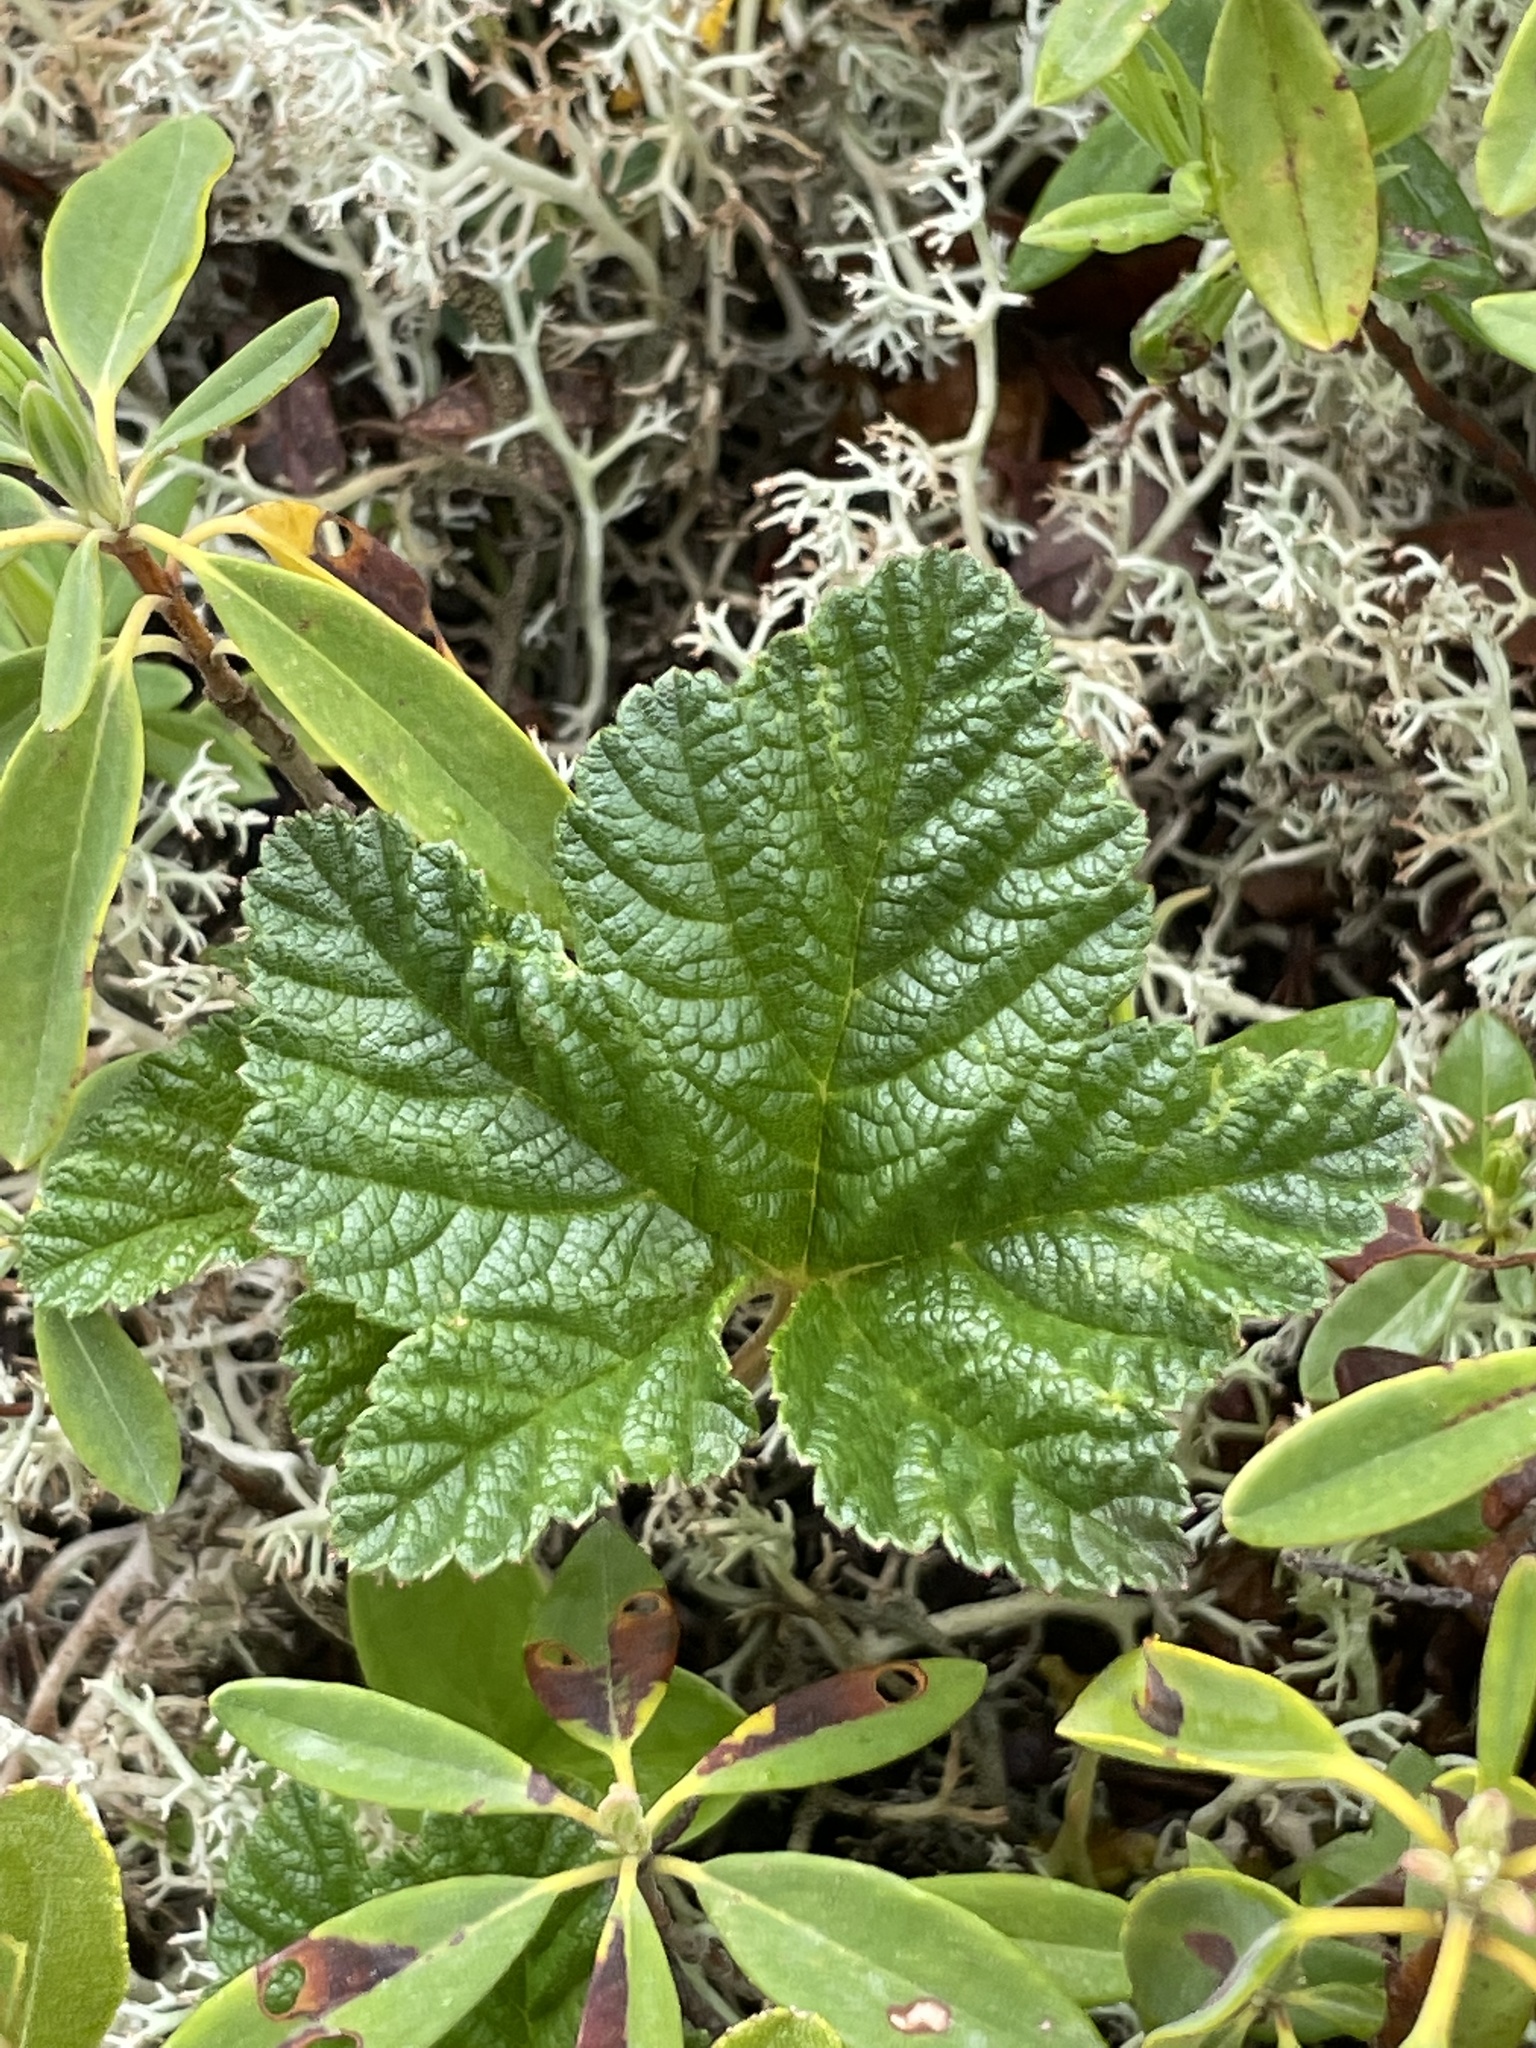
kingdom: Plantae
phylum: Tracheophyta
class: Magnoliopsida
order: Rosales
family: Rosaceae
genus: Rubus
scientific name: Rubus chamaemorus
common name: Cloudberry
